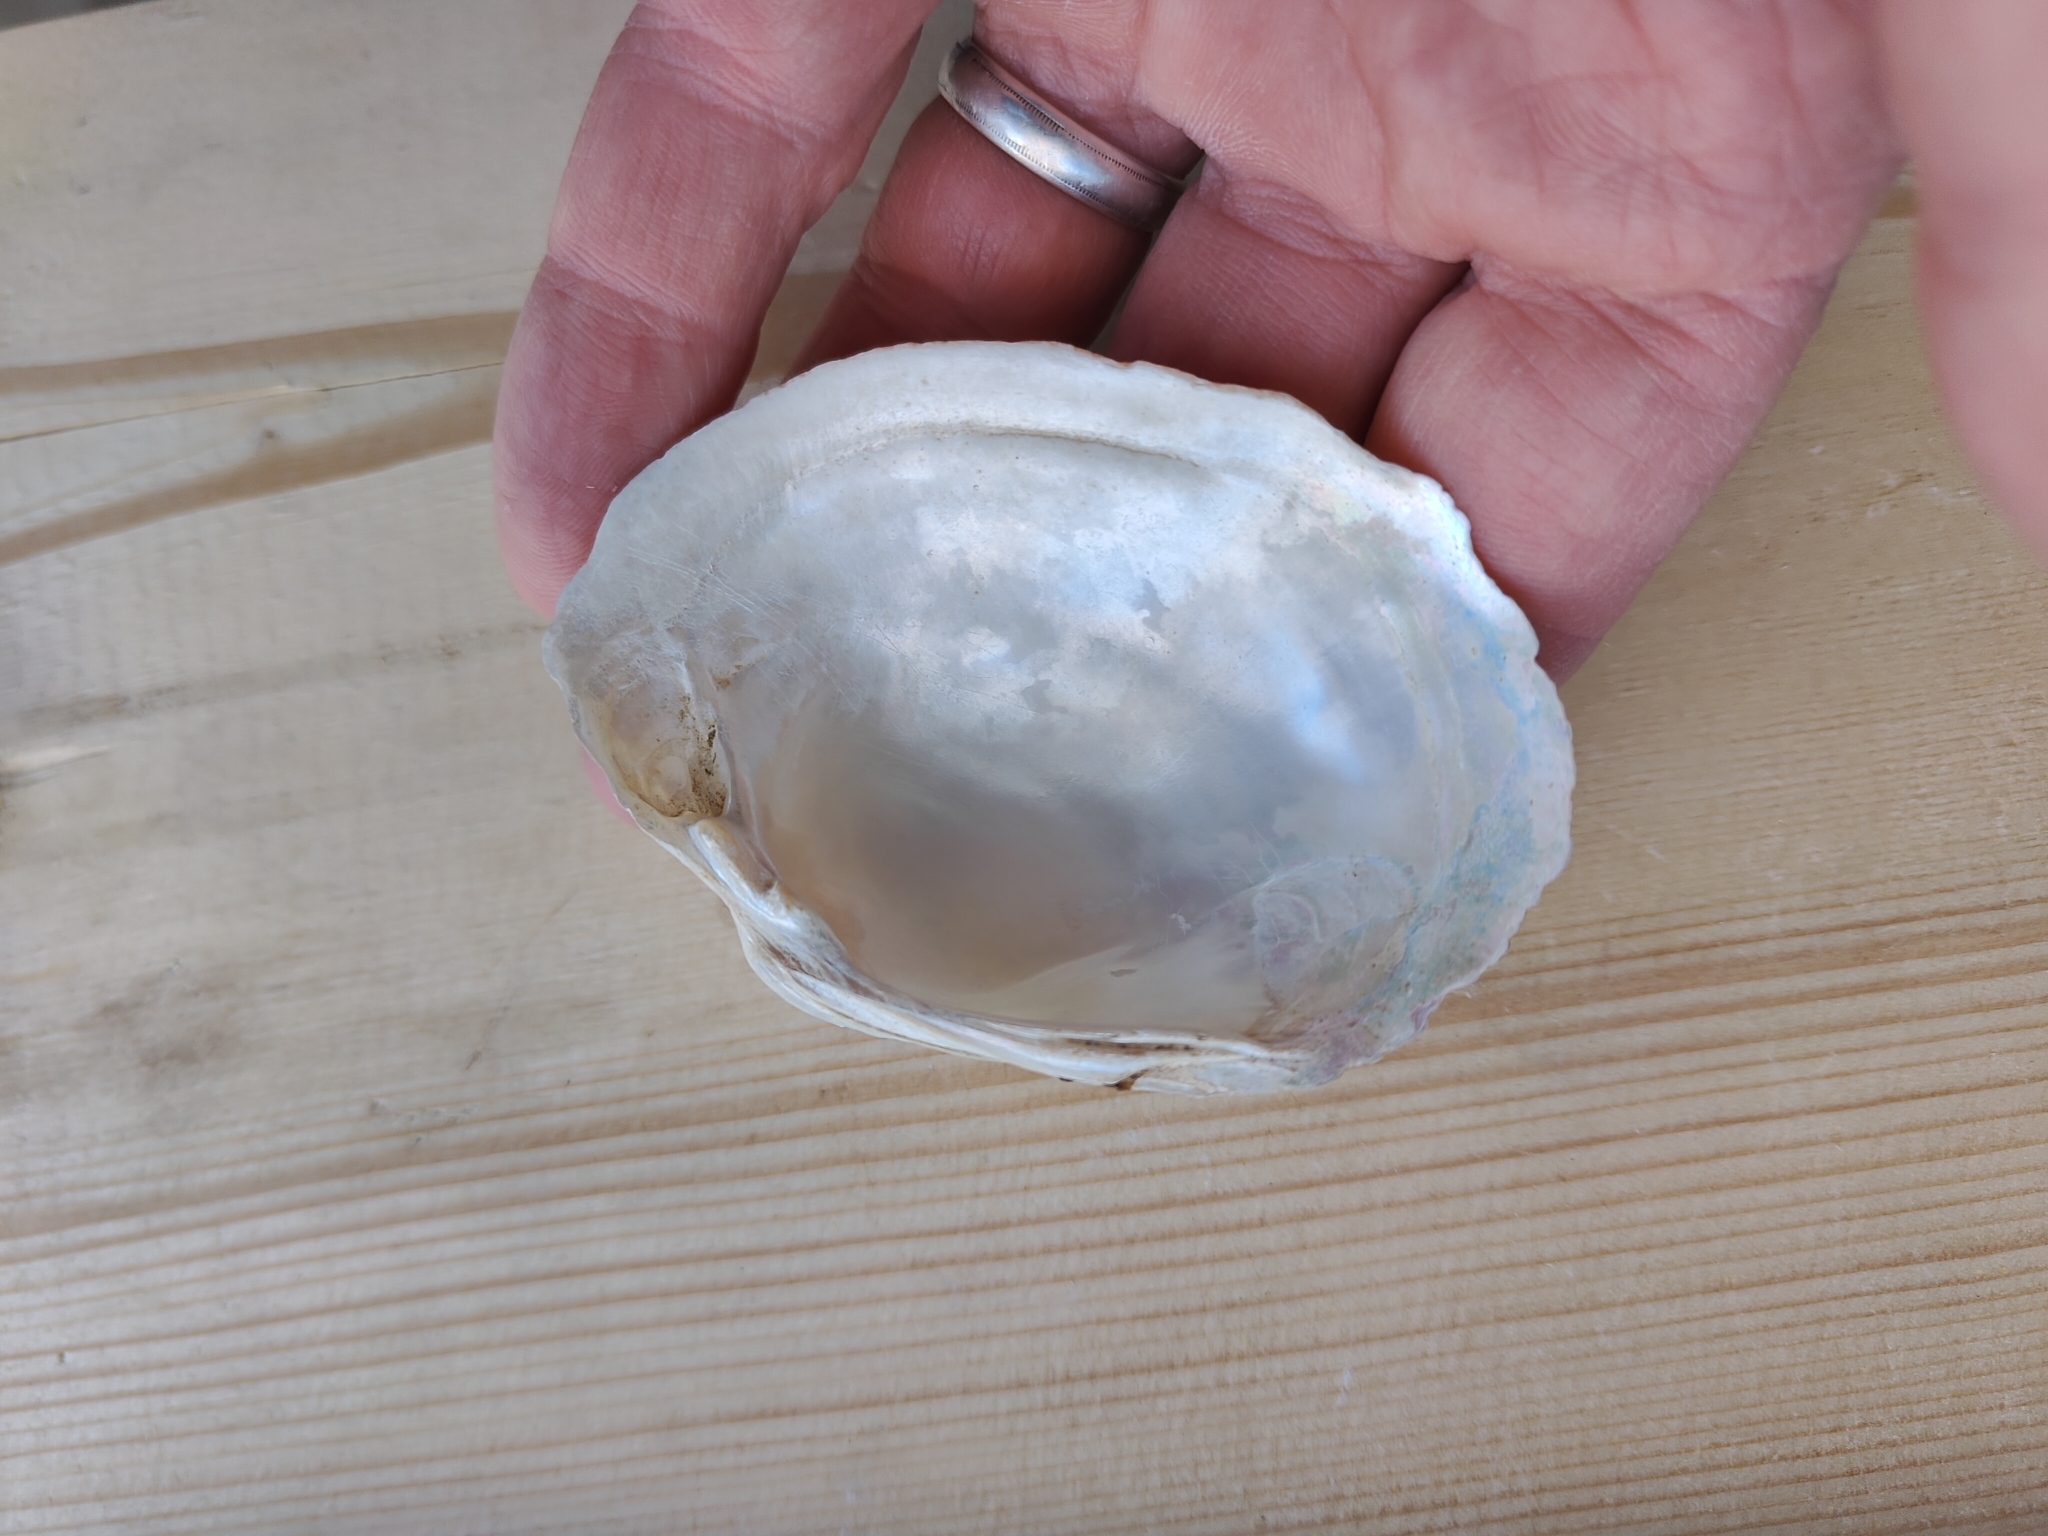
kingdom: Animalia
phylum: Mollusca
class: Bivalvia
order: Unionida
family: Unionidae
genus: Lampsilis
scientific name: Lampsilis cardium
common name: Plain pocketbook
